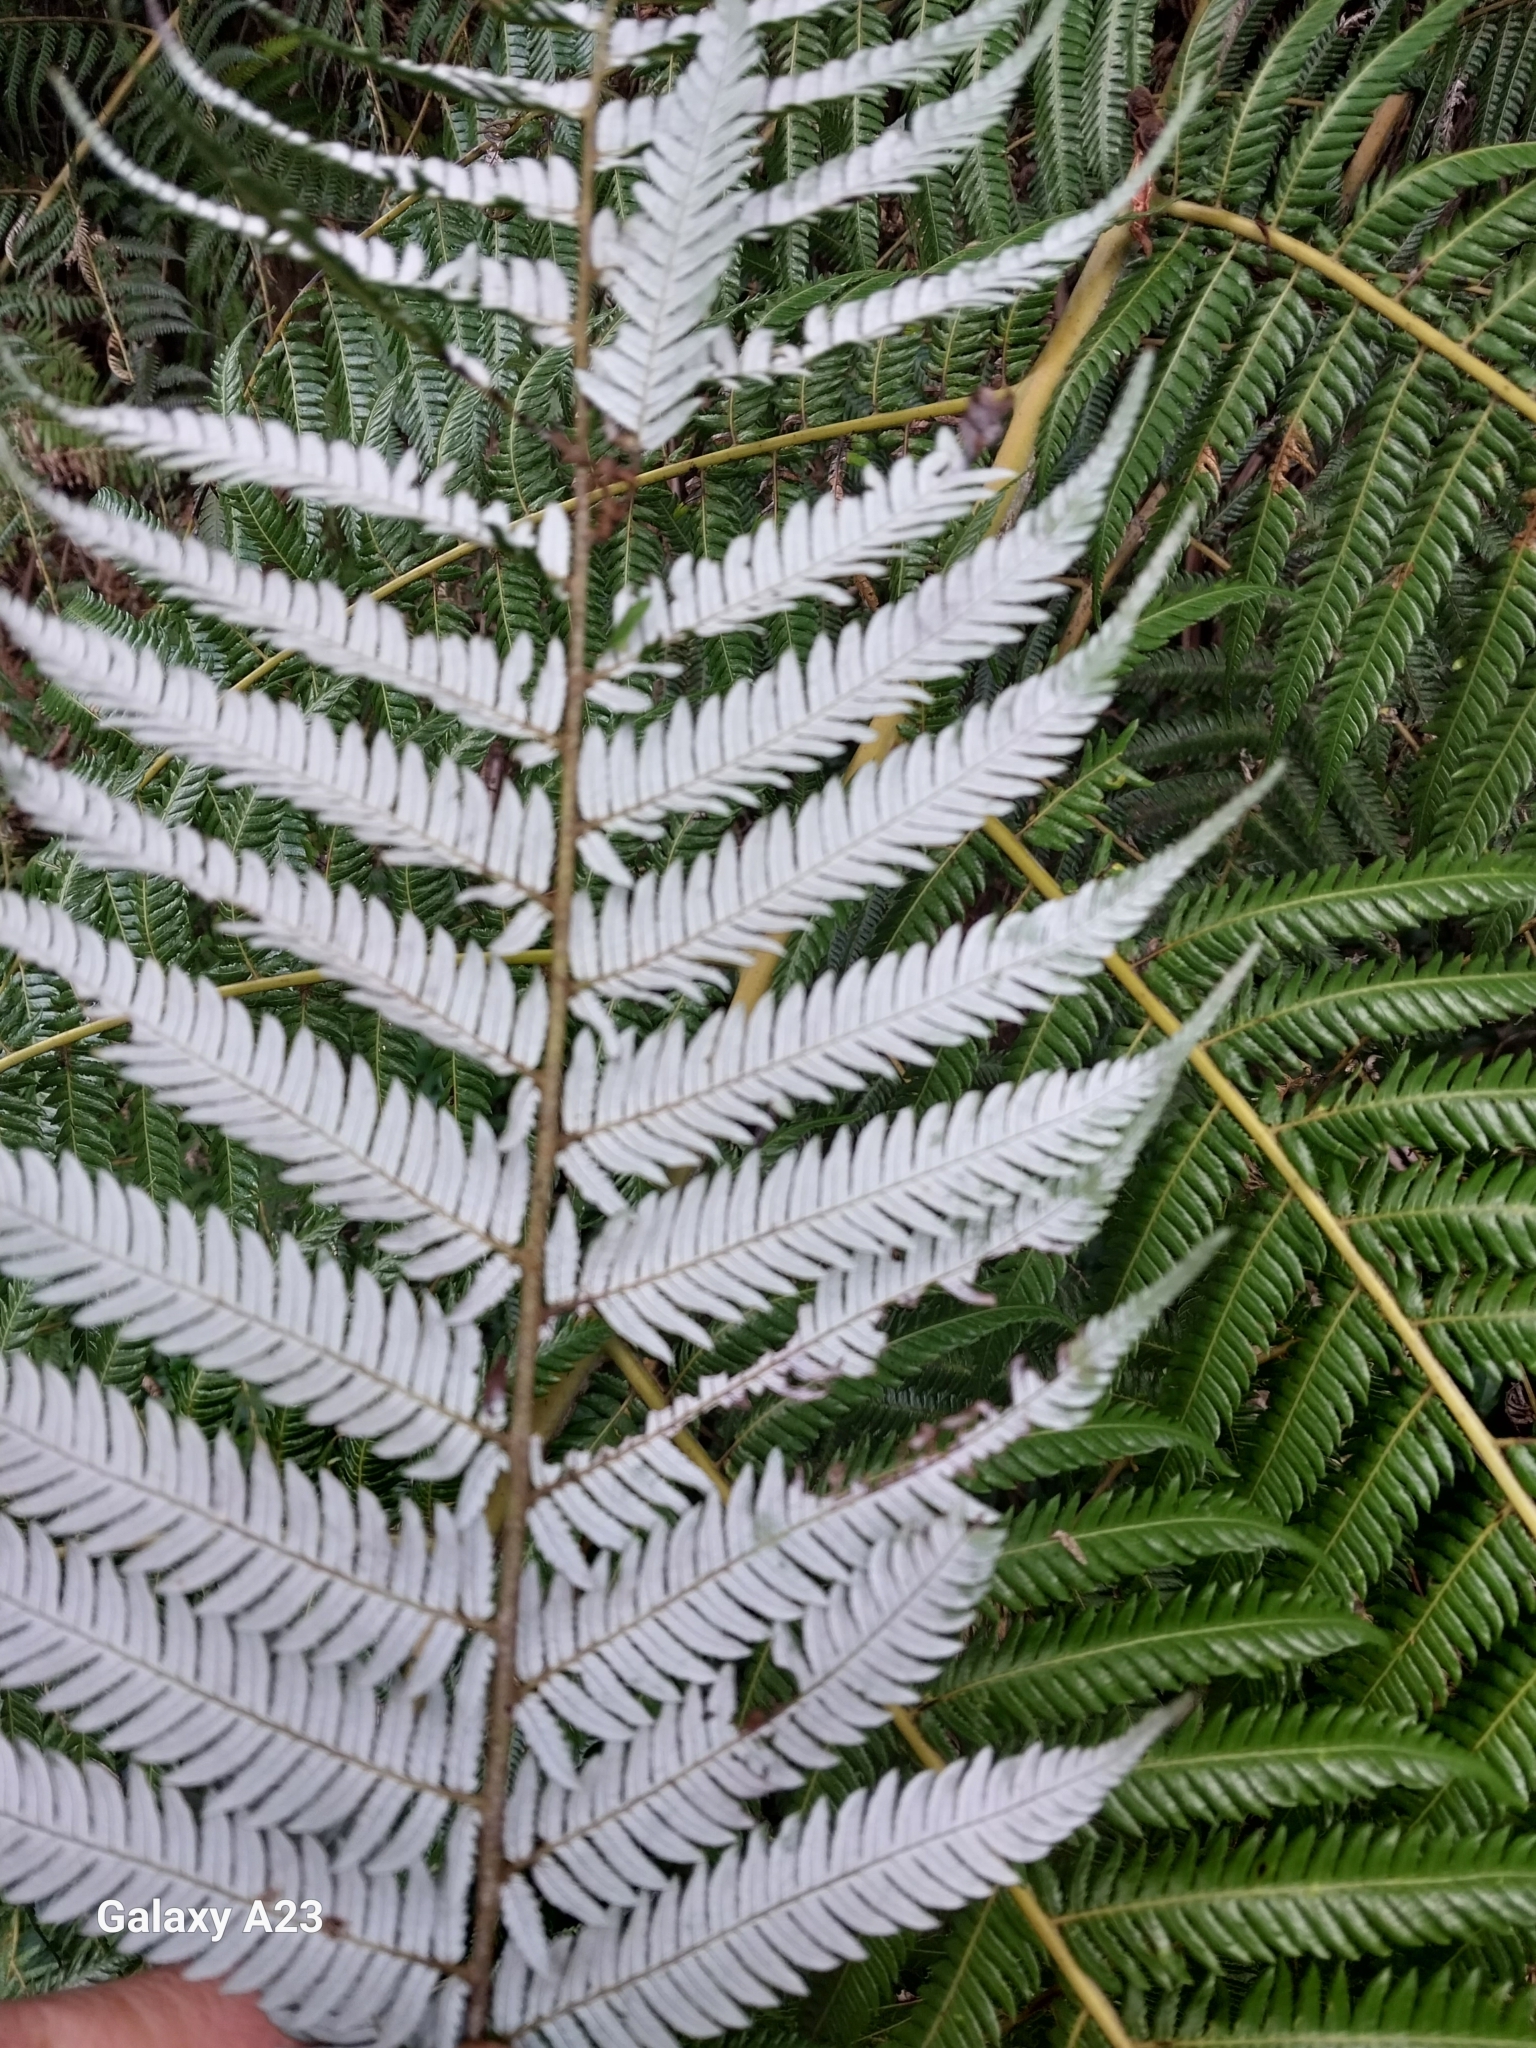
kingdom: Plantae
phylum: Tracheophyta
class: Polypodiopsida
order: Cyatheales
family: Cyatheaceae
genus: Alsophila
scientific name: Alsophila dealbata
